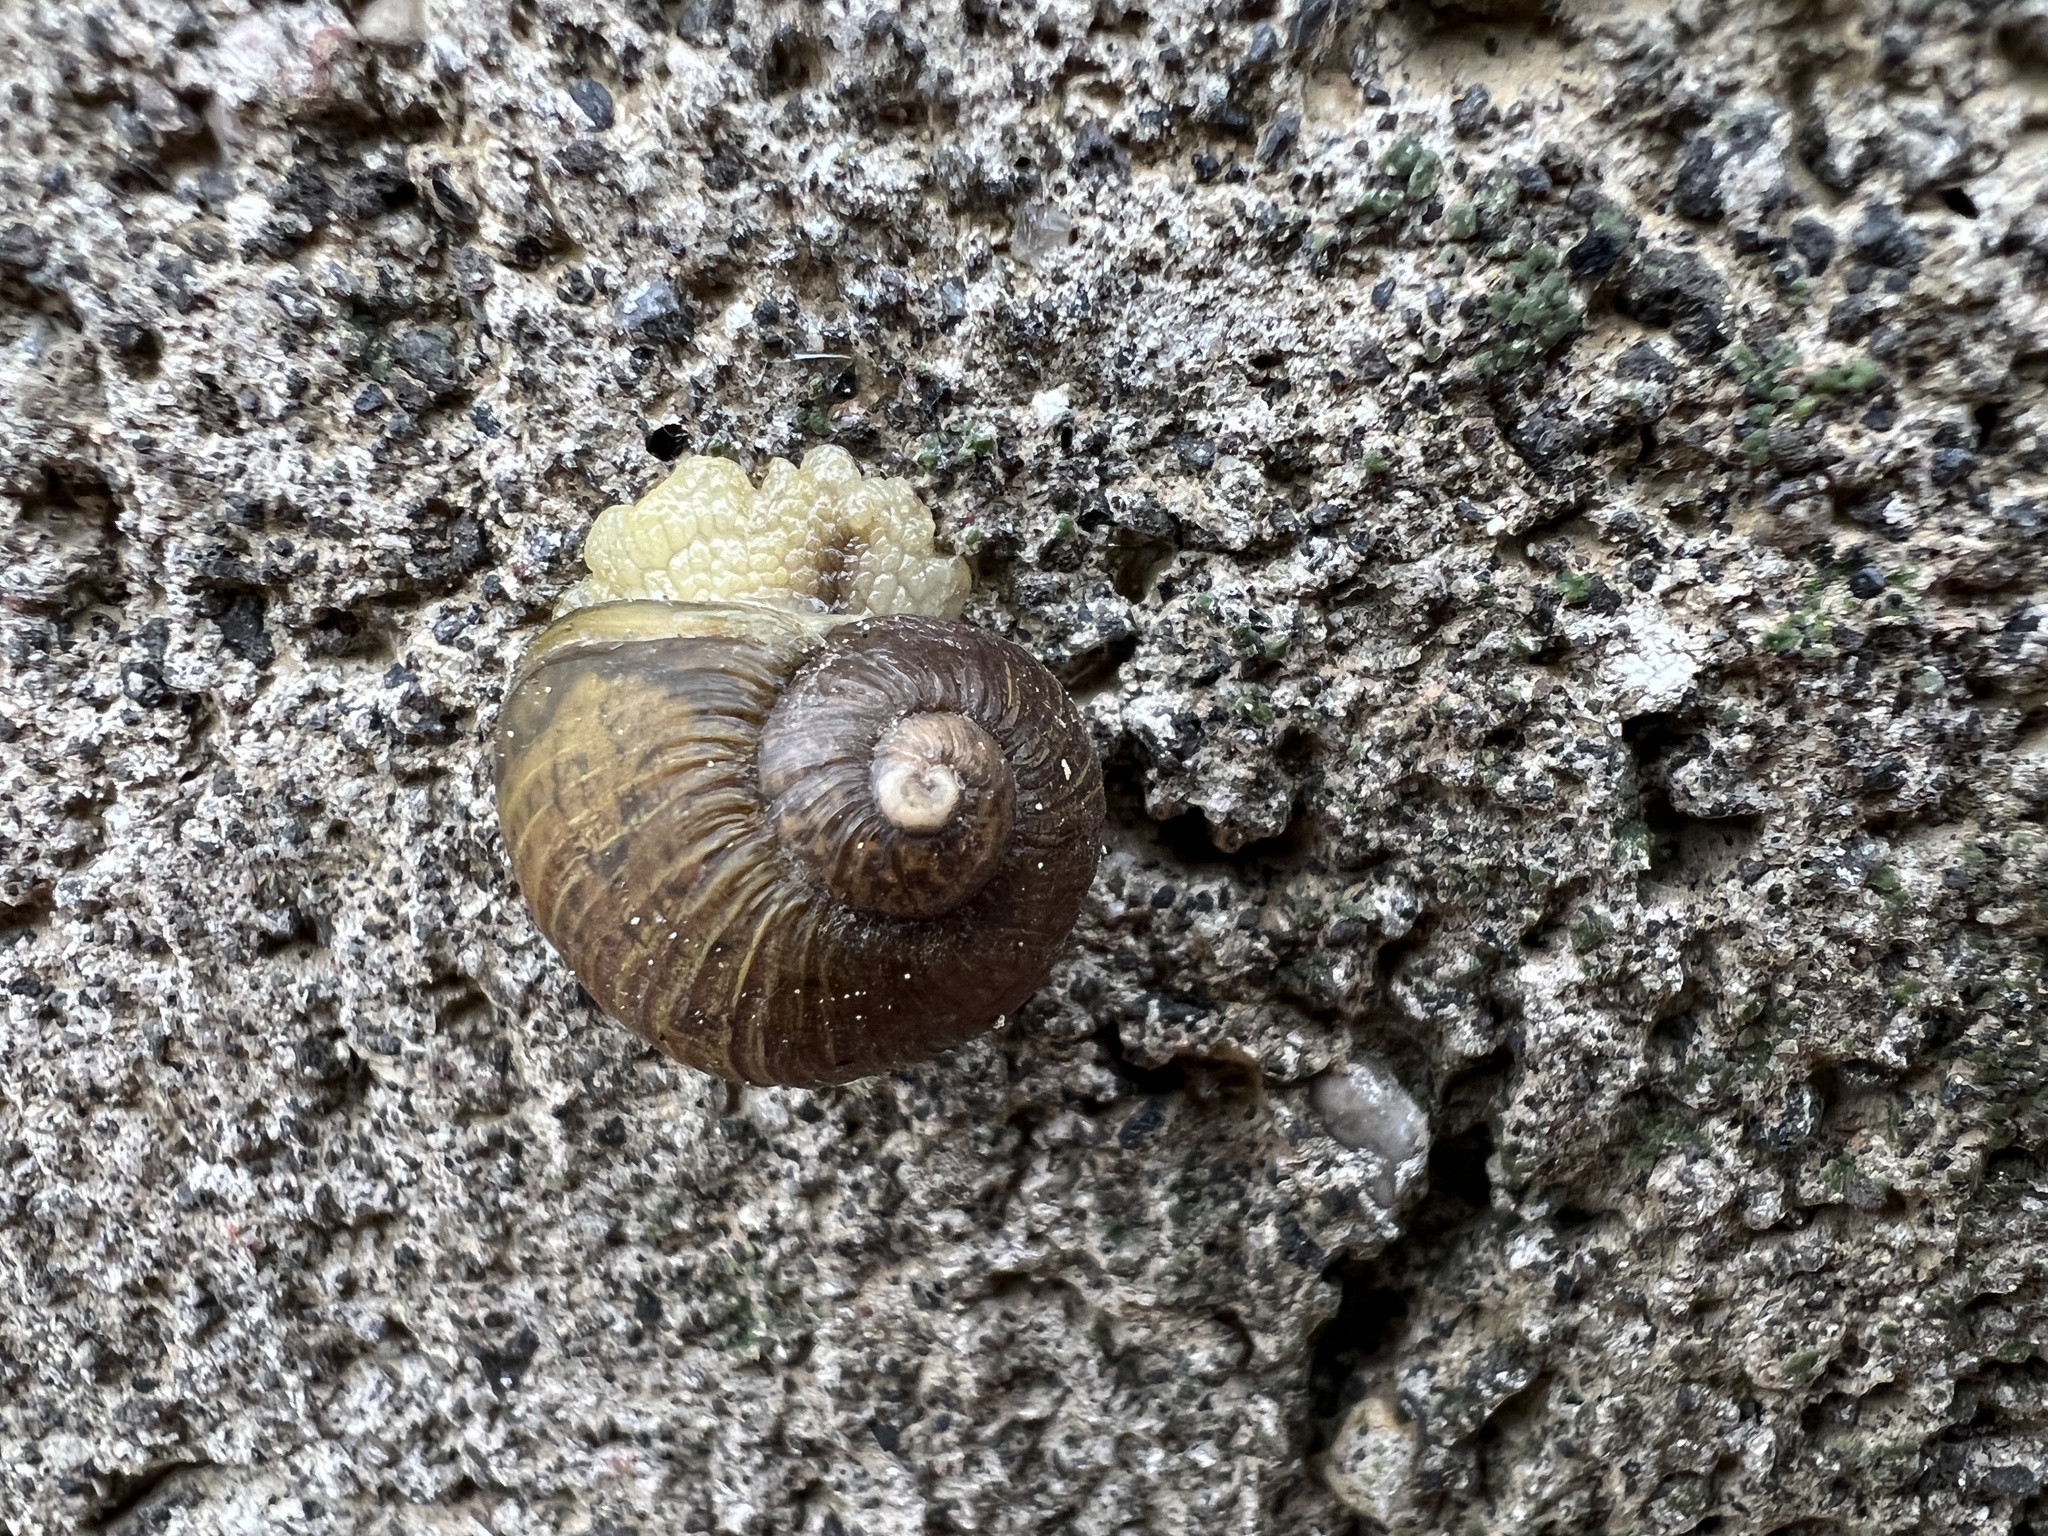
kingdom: Animalia
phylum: Mollusca
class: Gastropoda
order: Stylommatophora
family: Helicidae
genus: Cantareus
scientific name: Cantareus apertus
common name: Green gardensnail
